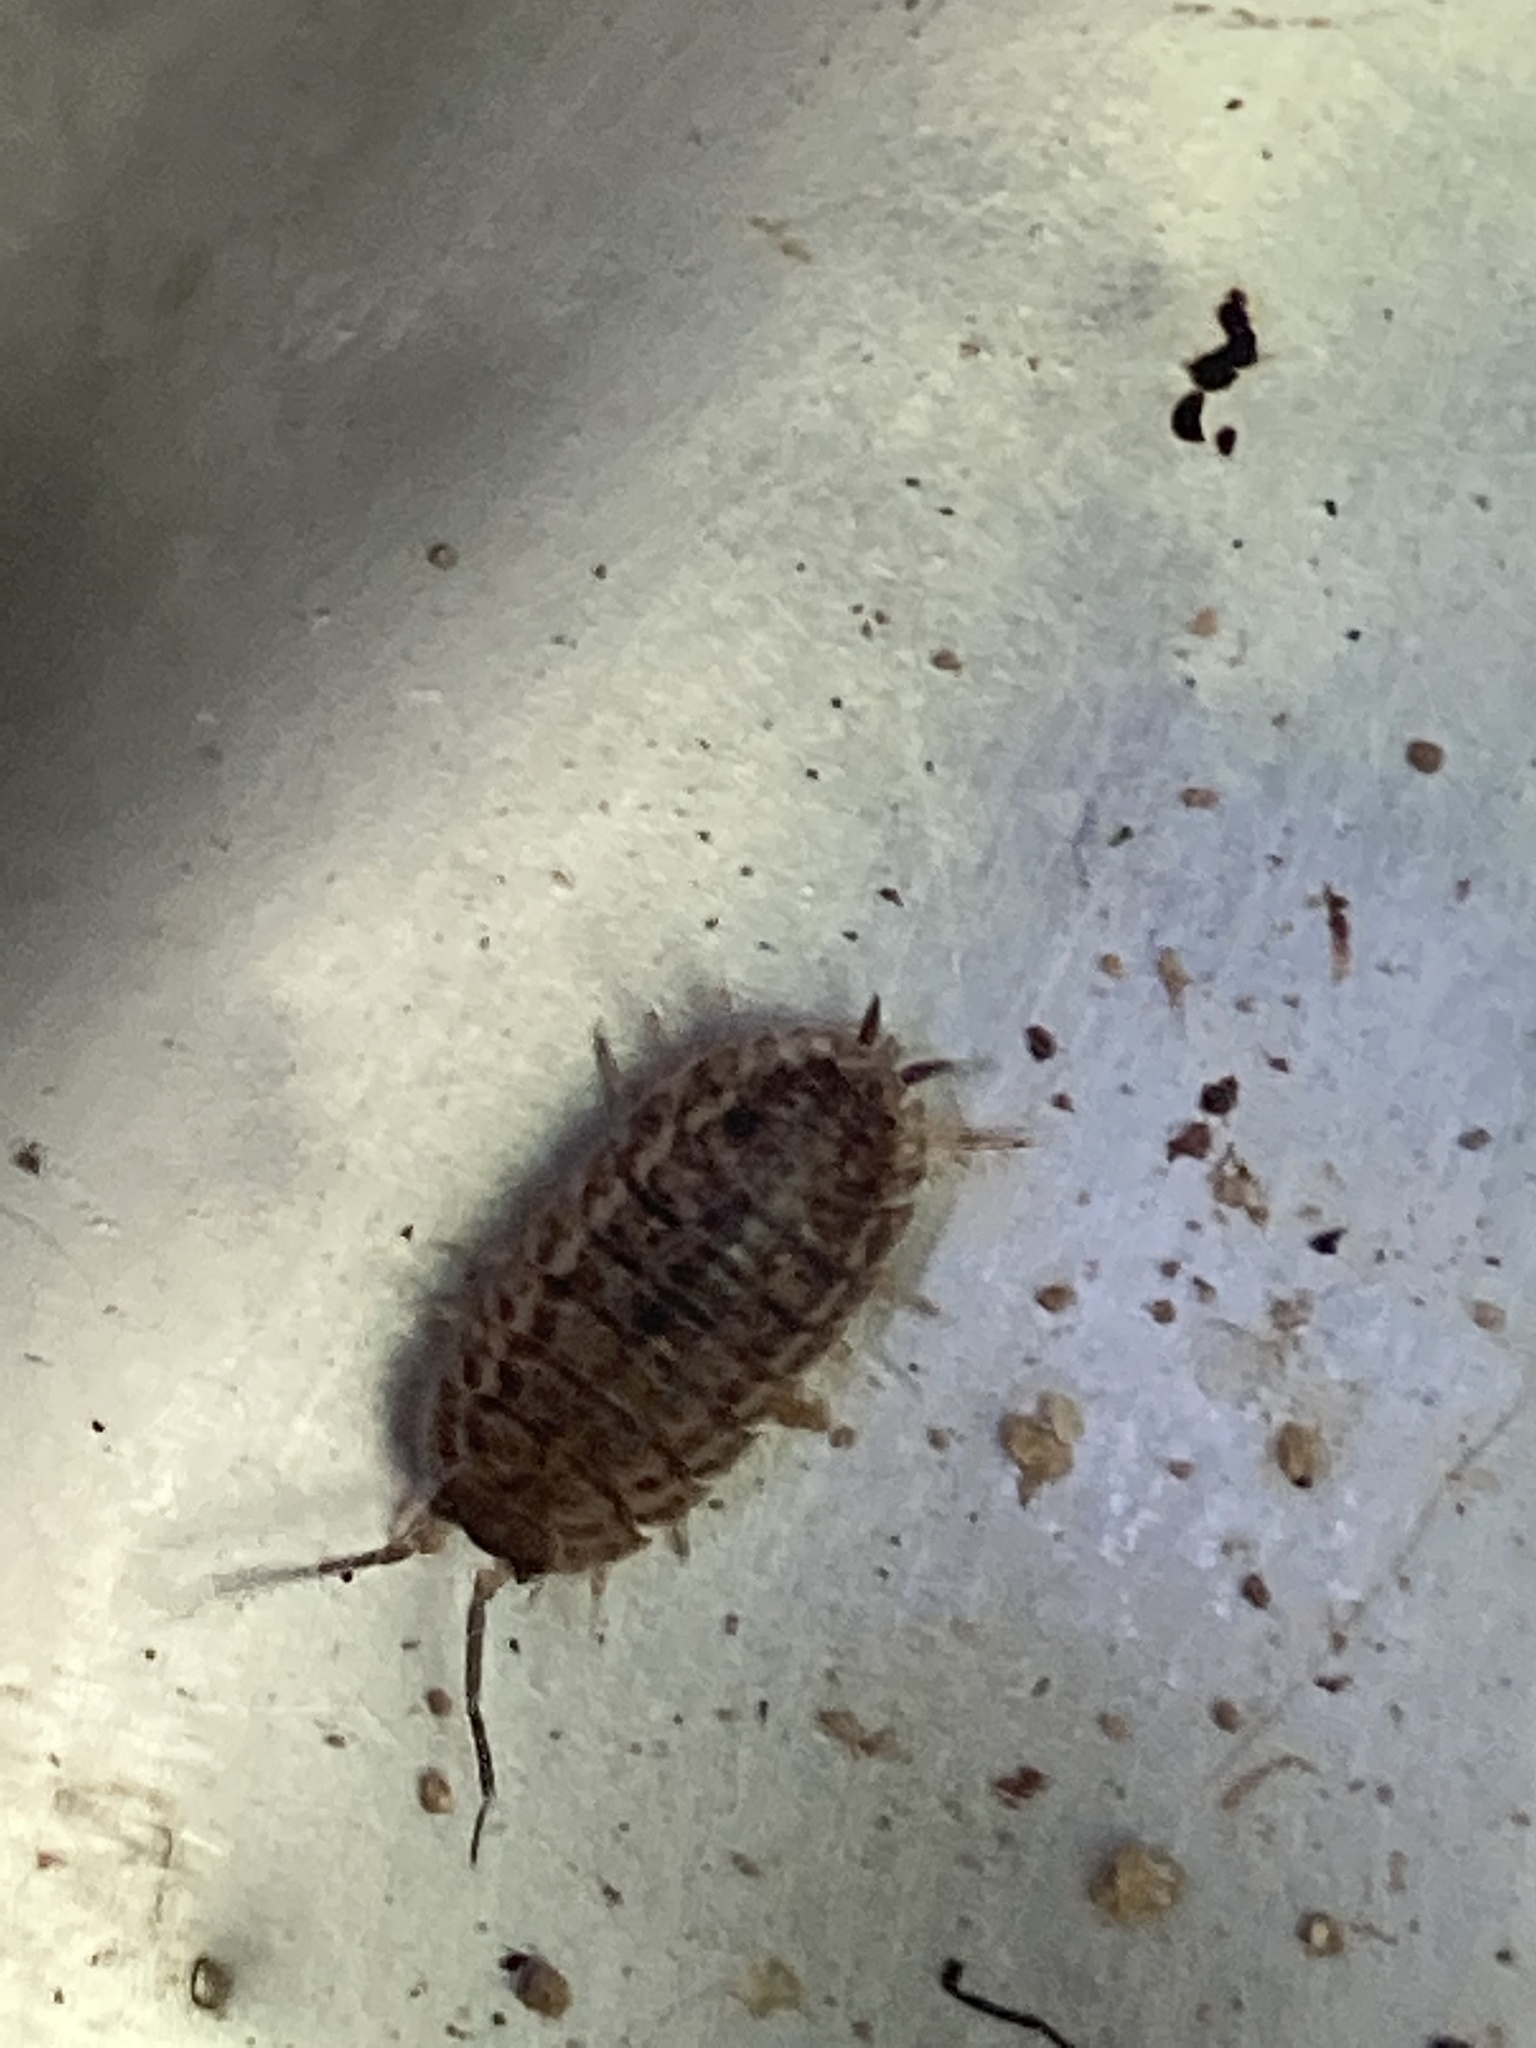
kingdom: Animalia
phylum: Arthropoda
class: Malacostraca
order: Isopoda
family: Trachelipodidae
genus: Trachelipus
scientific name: Trachelipus rathkii
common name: Isopod
